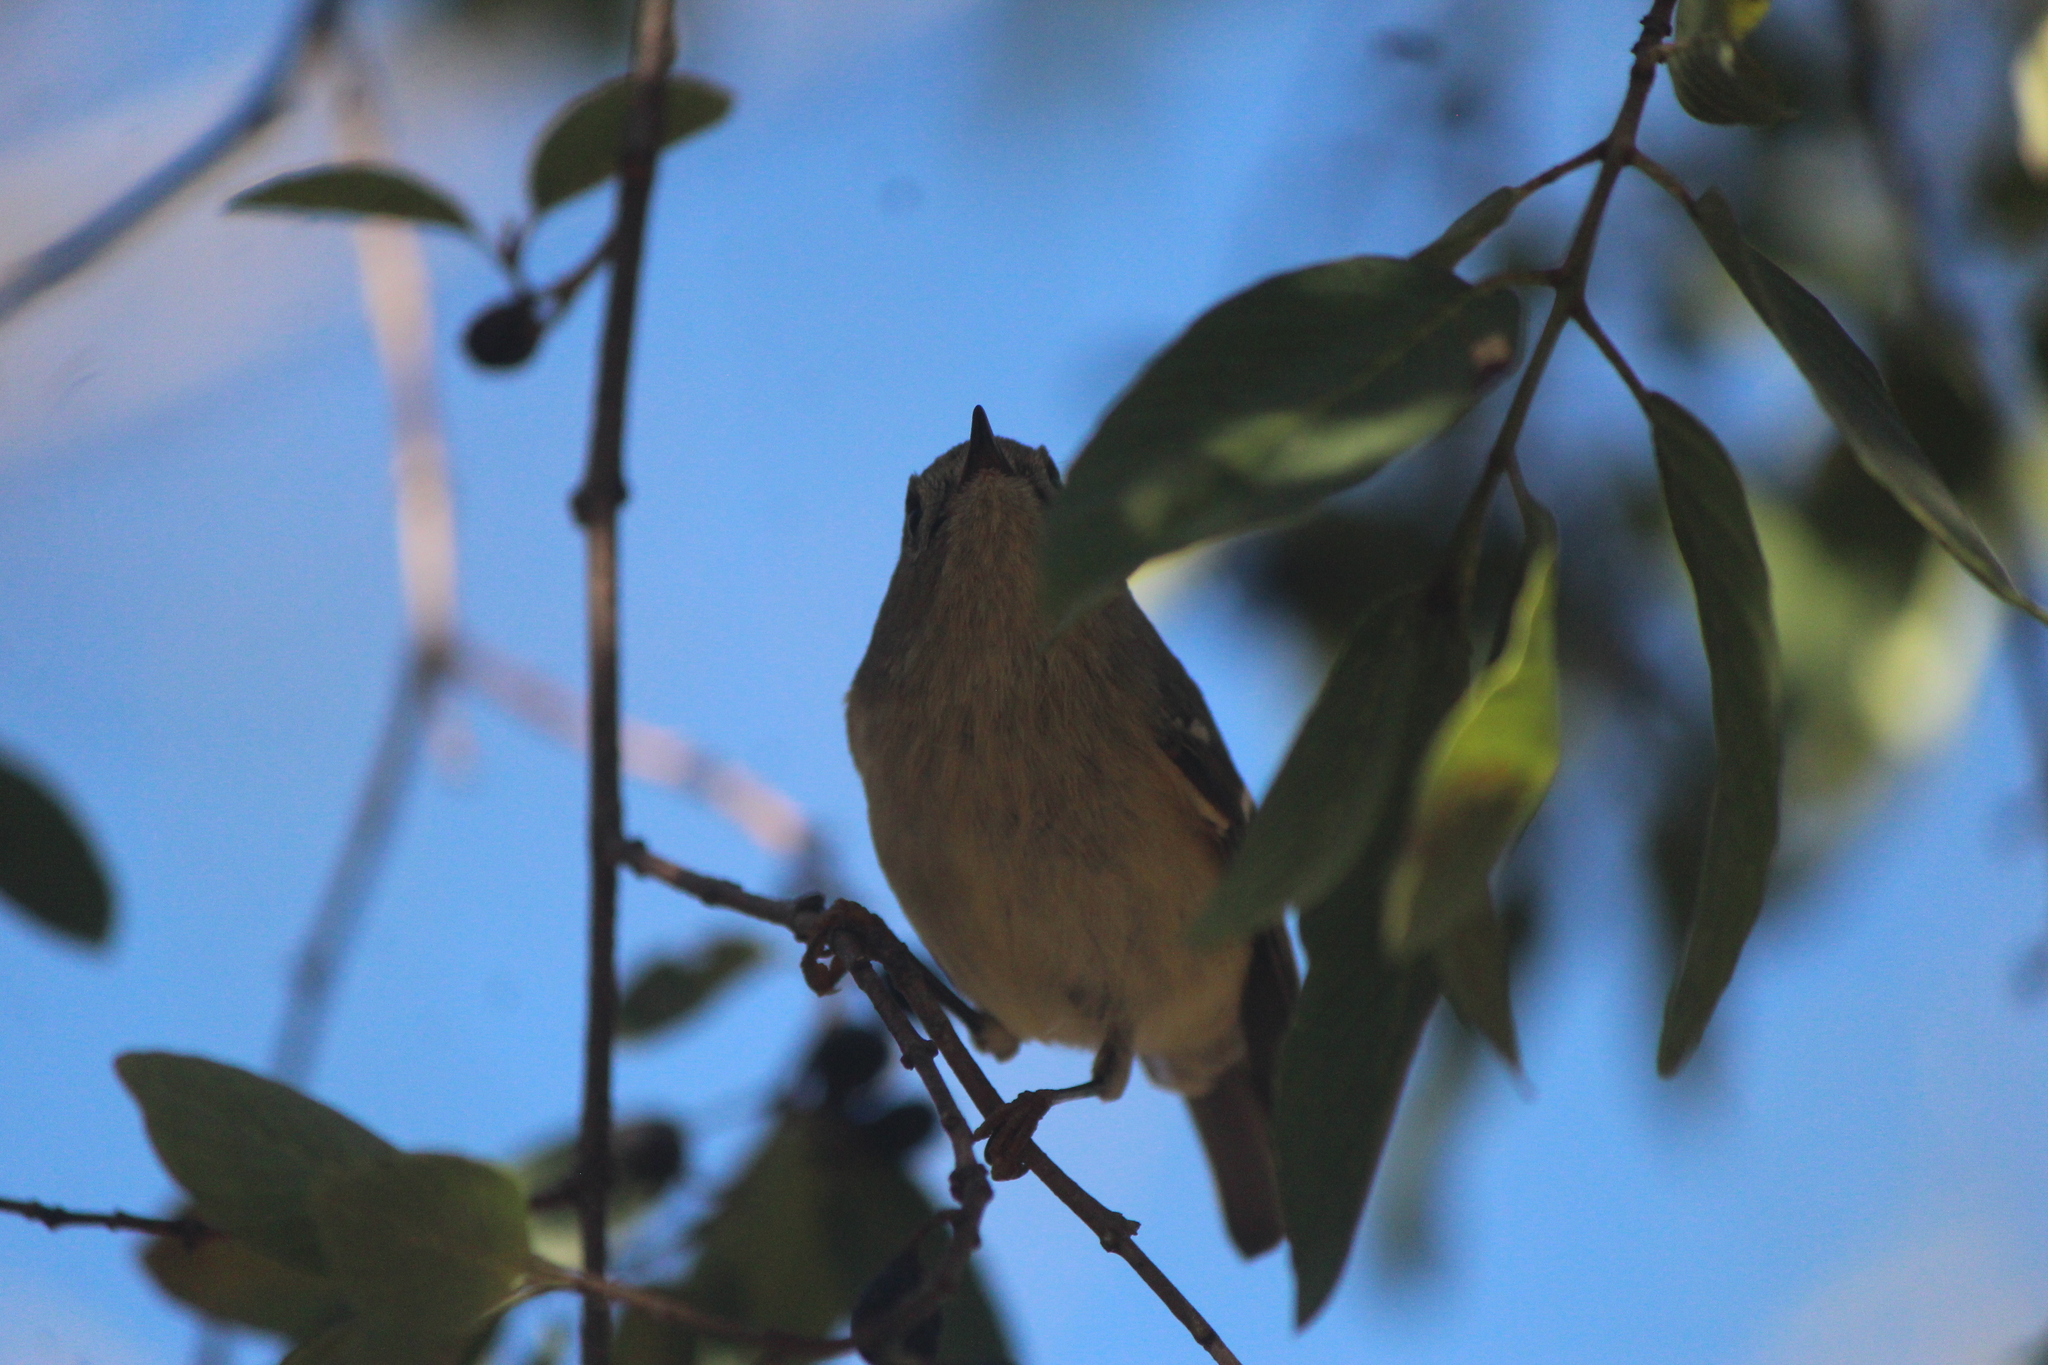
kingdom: Animalia
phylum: Chordata
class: Aves
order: Passeriformes
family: Regulidae
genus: Regulus
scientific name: Regulus calendula
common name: Ruby-crowned kinglet
